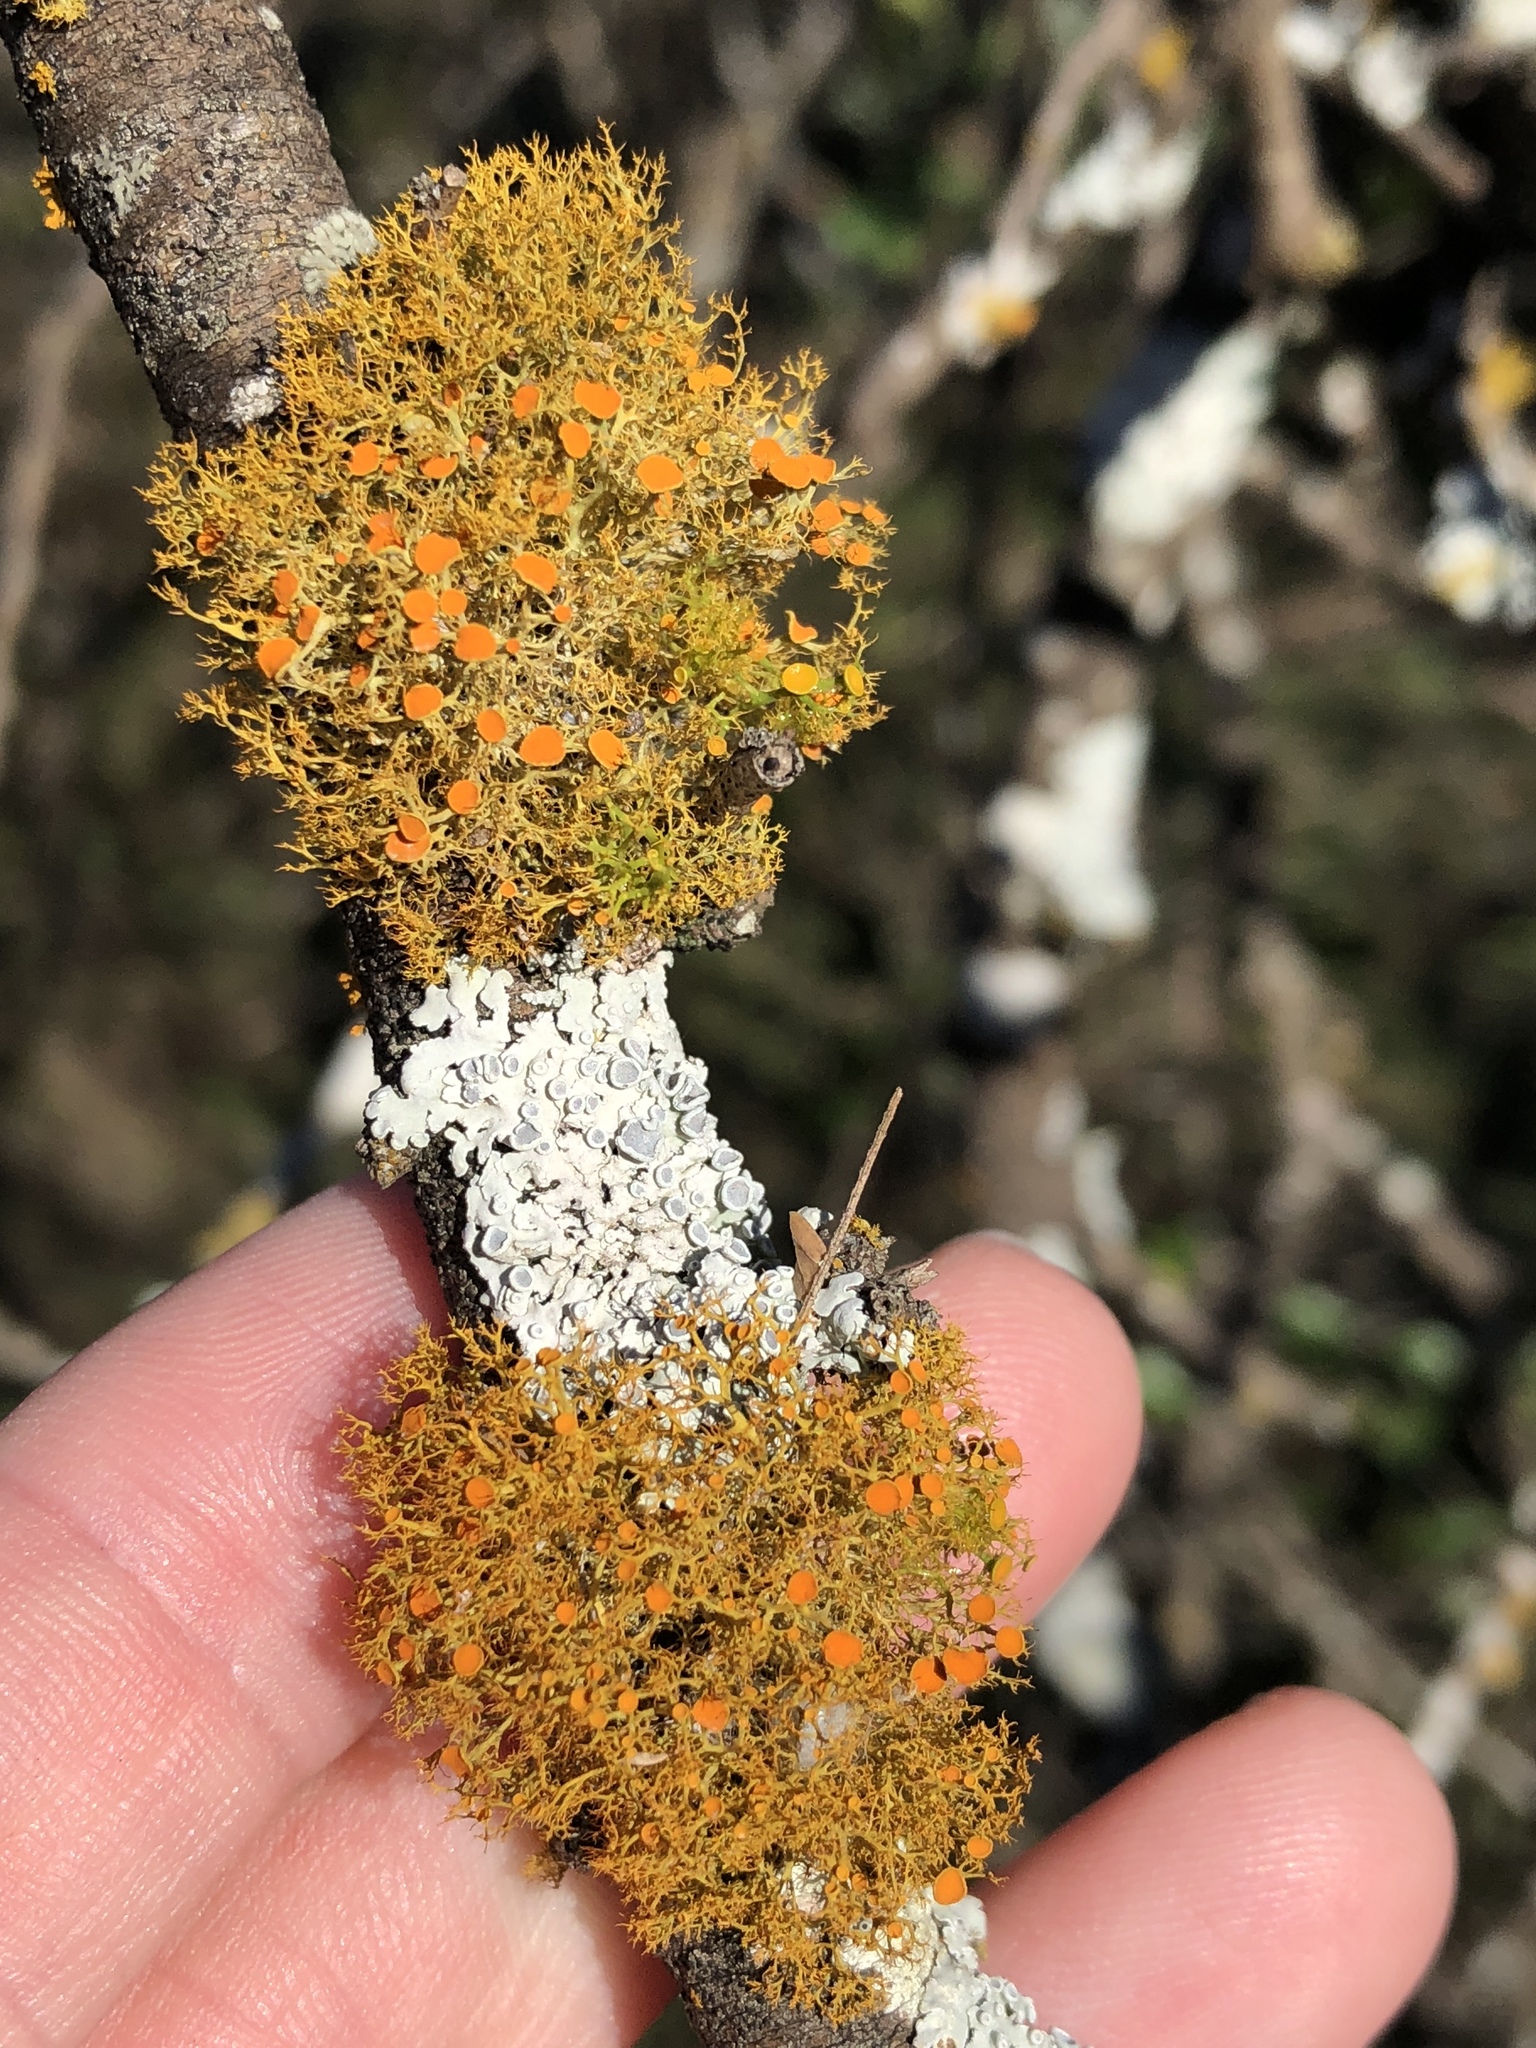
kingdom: Fungi
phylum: Ascomycota
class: Lecanoromycetes
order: Teloschistales
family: Teloschistaceae
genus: Teloschistes
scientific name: Teloschistes exilis
